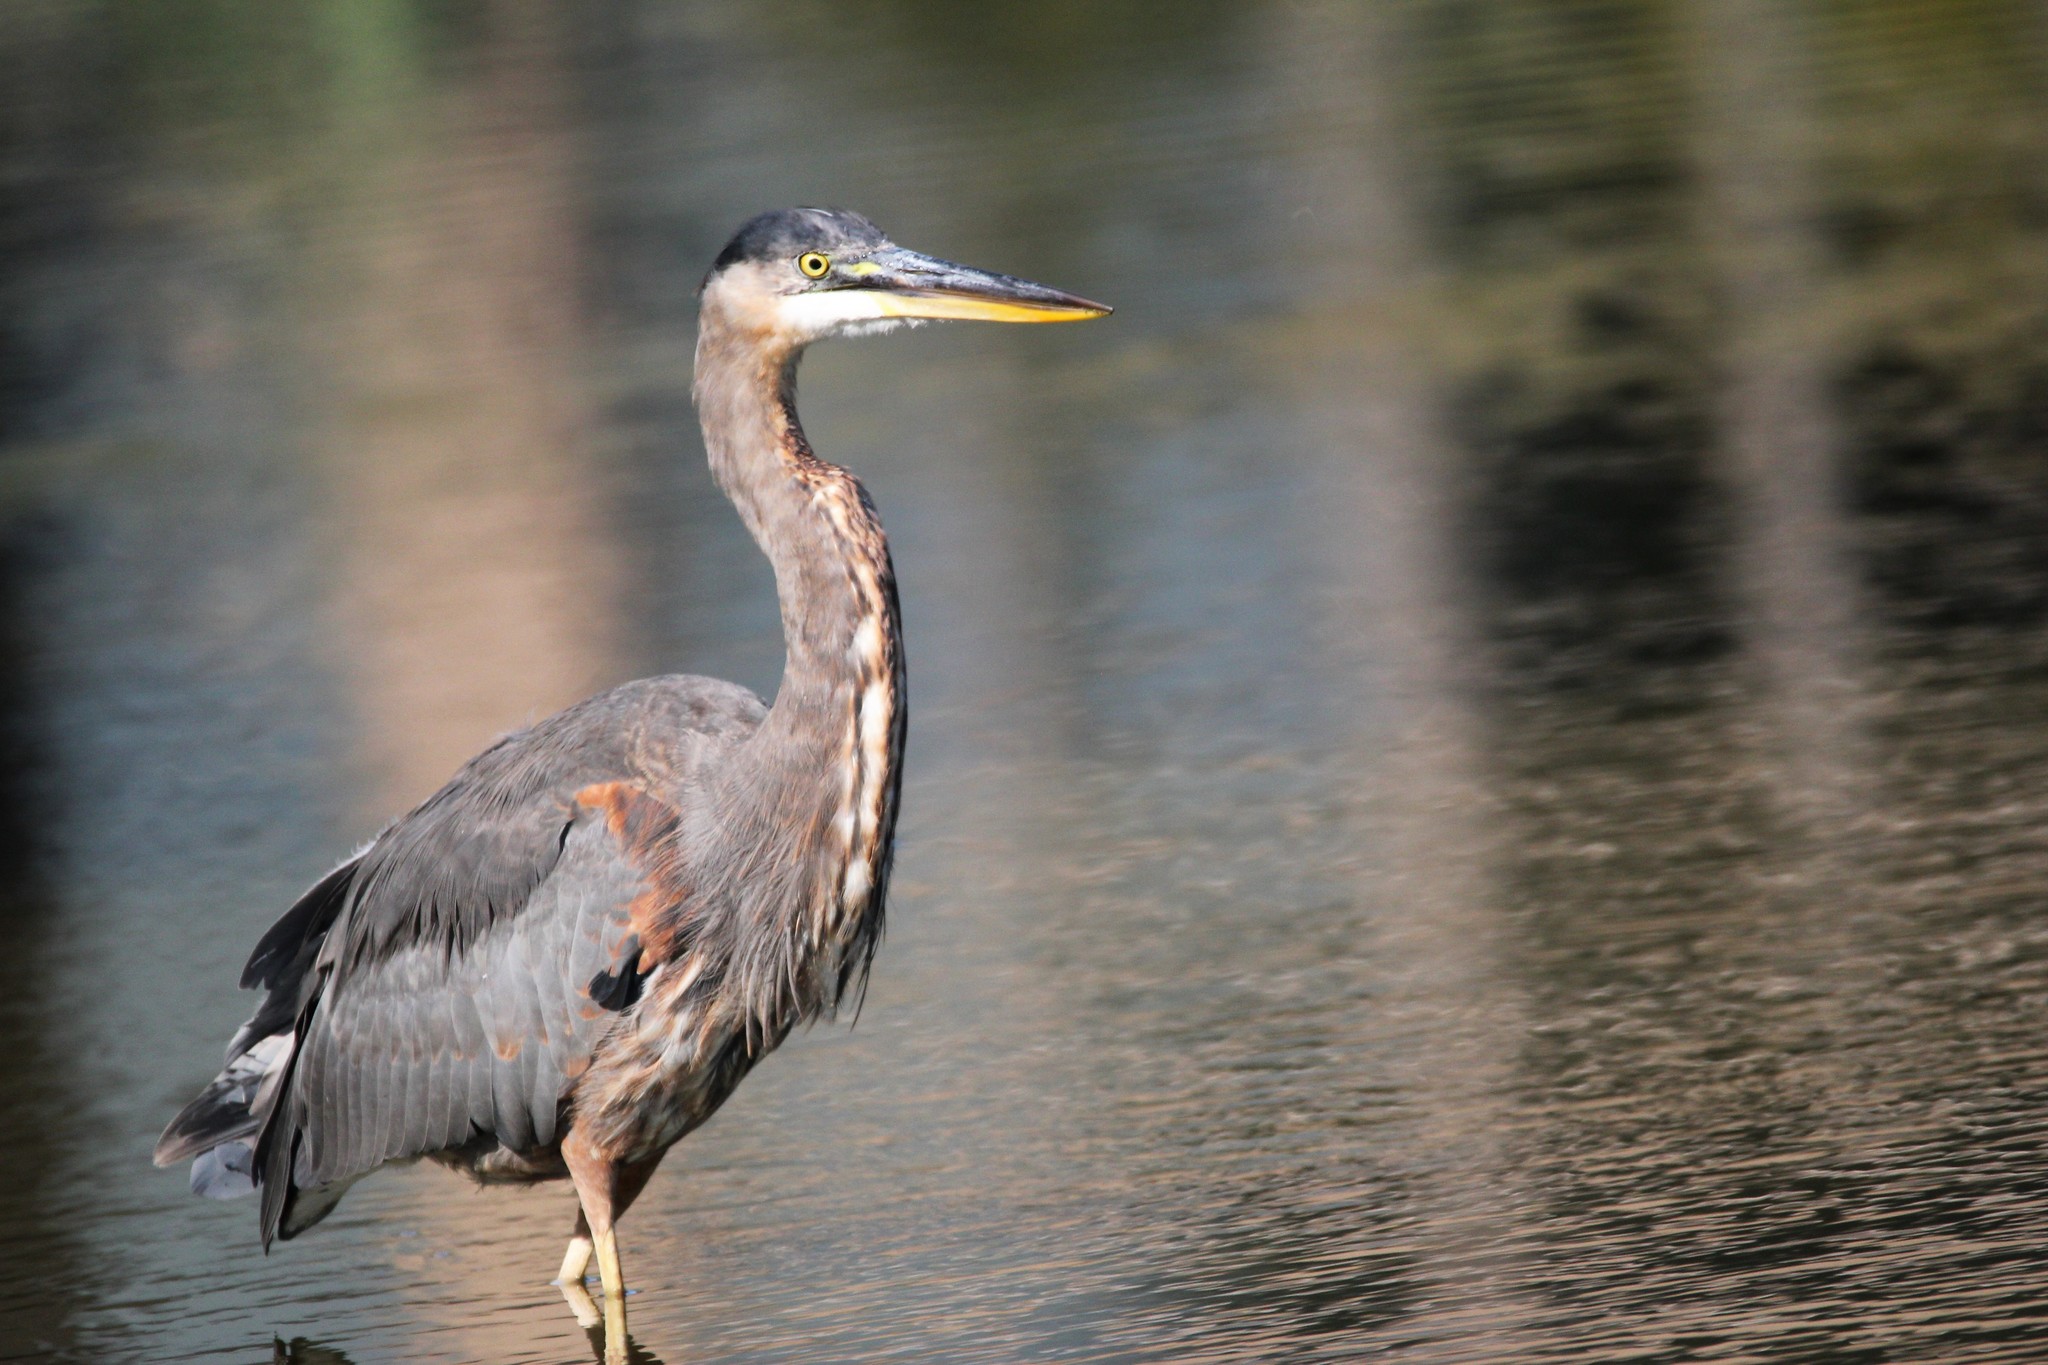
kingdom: Animalia
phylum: Chordata
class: Aves
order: Pelecaniformes
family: Ardeidae
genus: Ardea
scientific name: Ardea herodias
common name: Great blue heron
